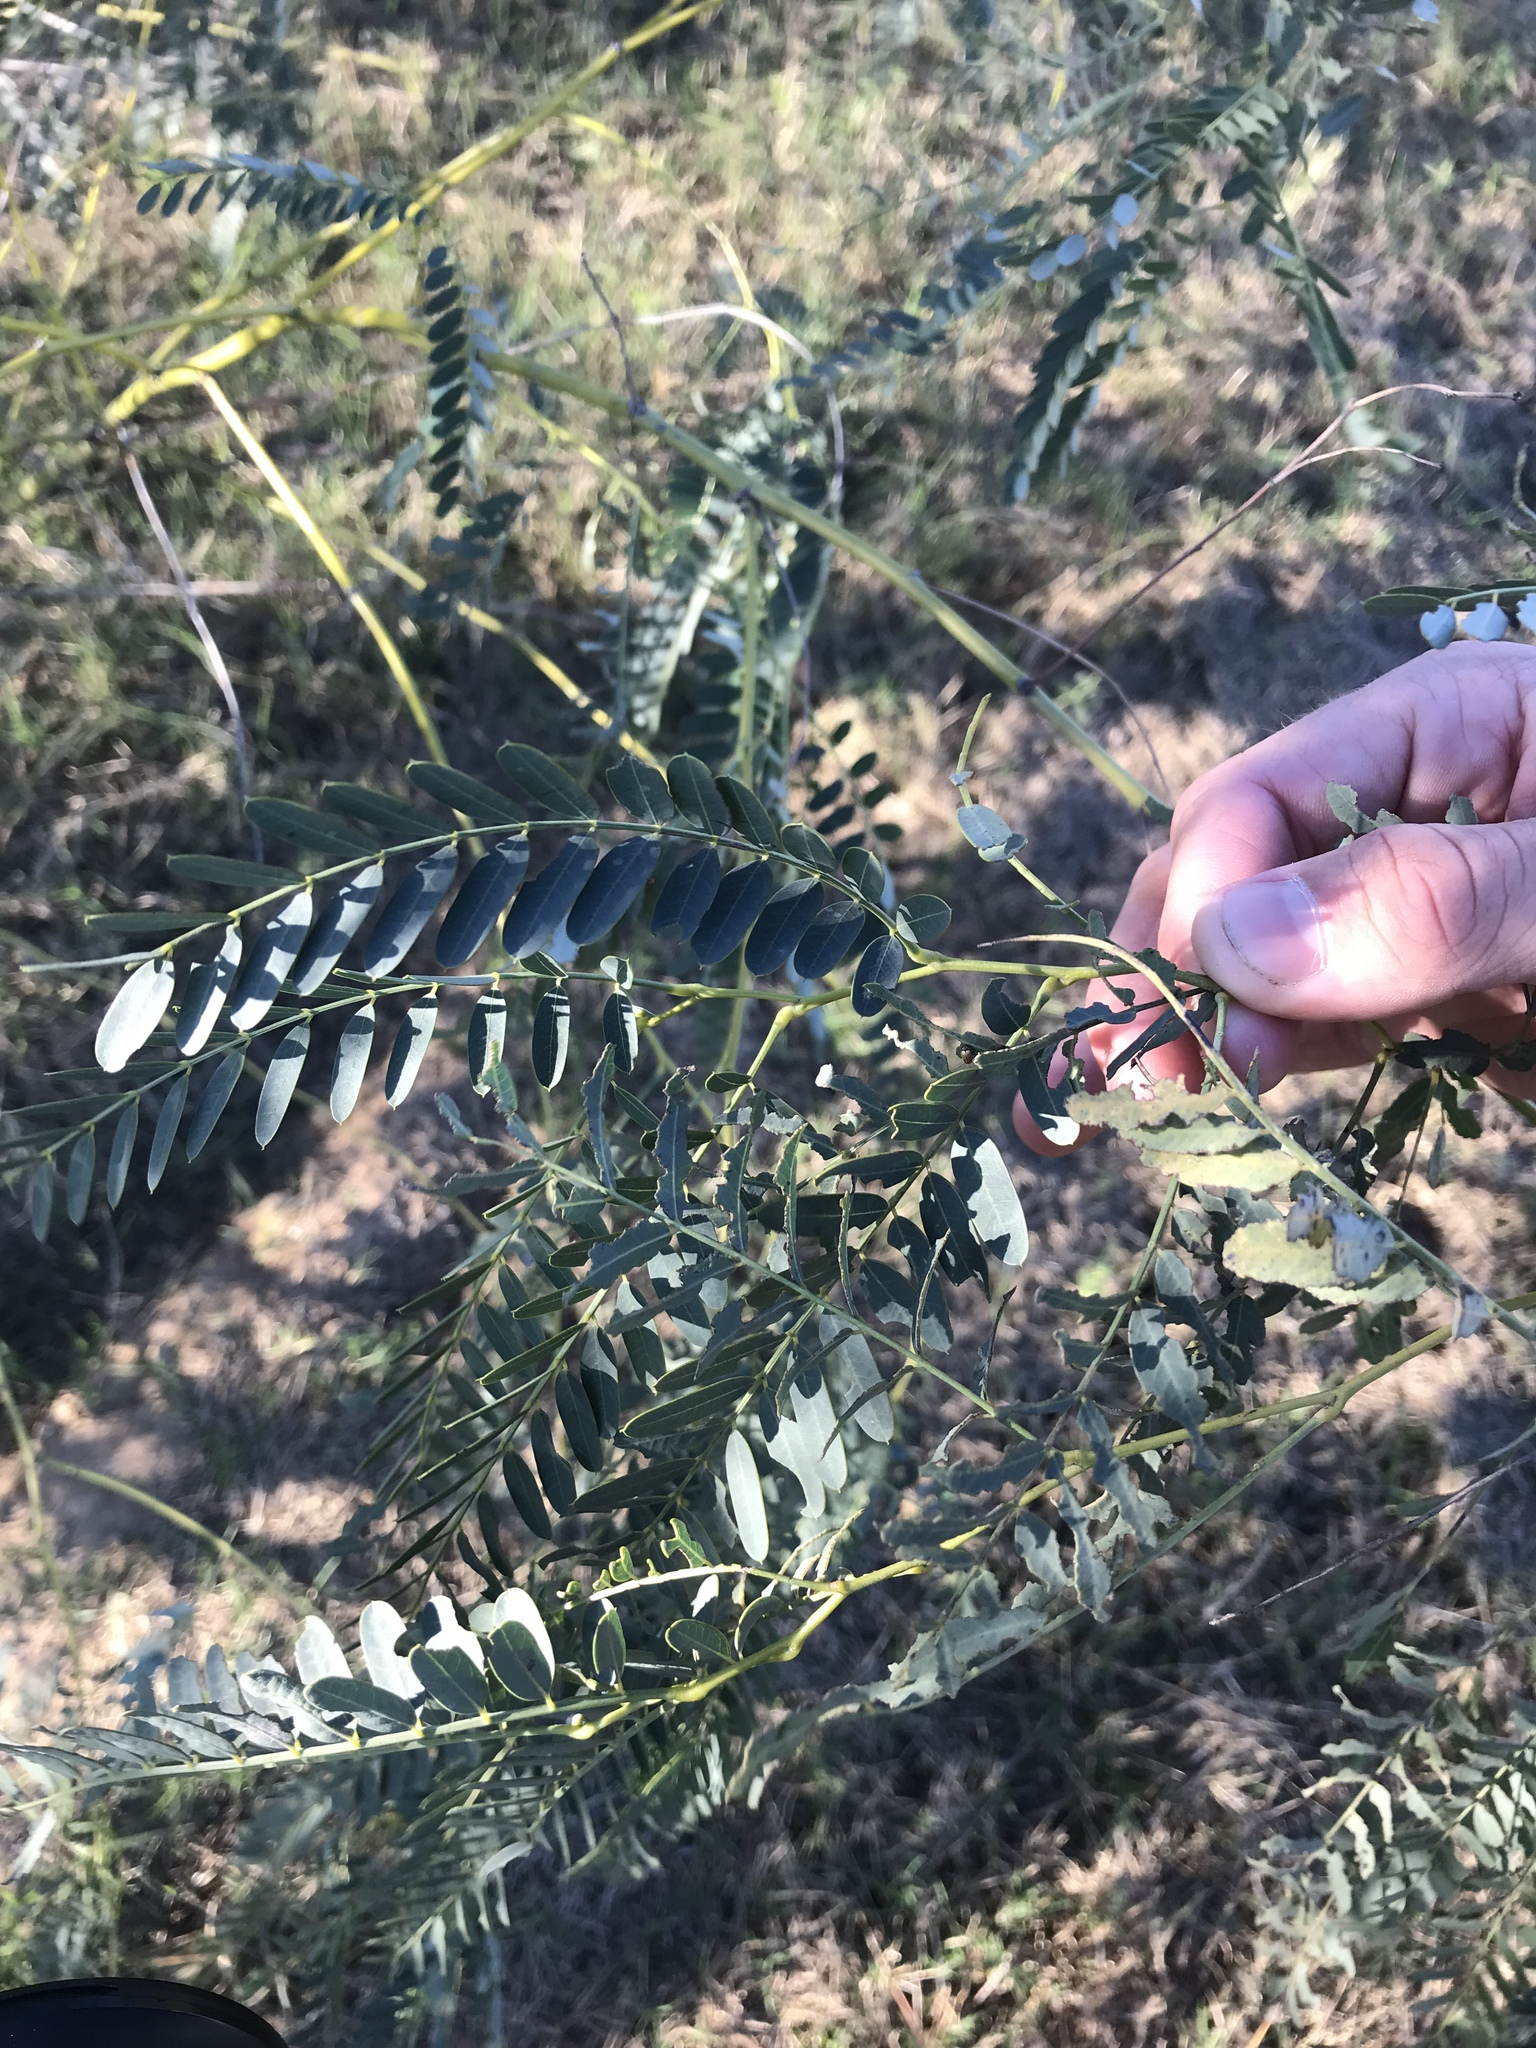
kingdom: Plantae
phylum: Tracheophyta
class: Magnoliopsida
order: Fabales
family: Fabaceae
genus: Sesbania
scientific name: Sesbania drummondii
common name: Poison-bean
